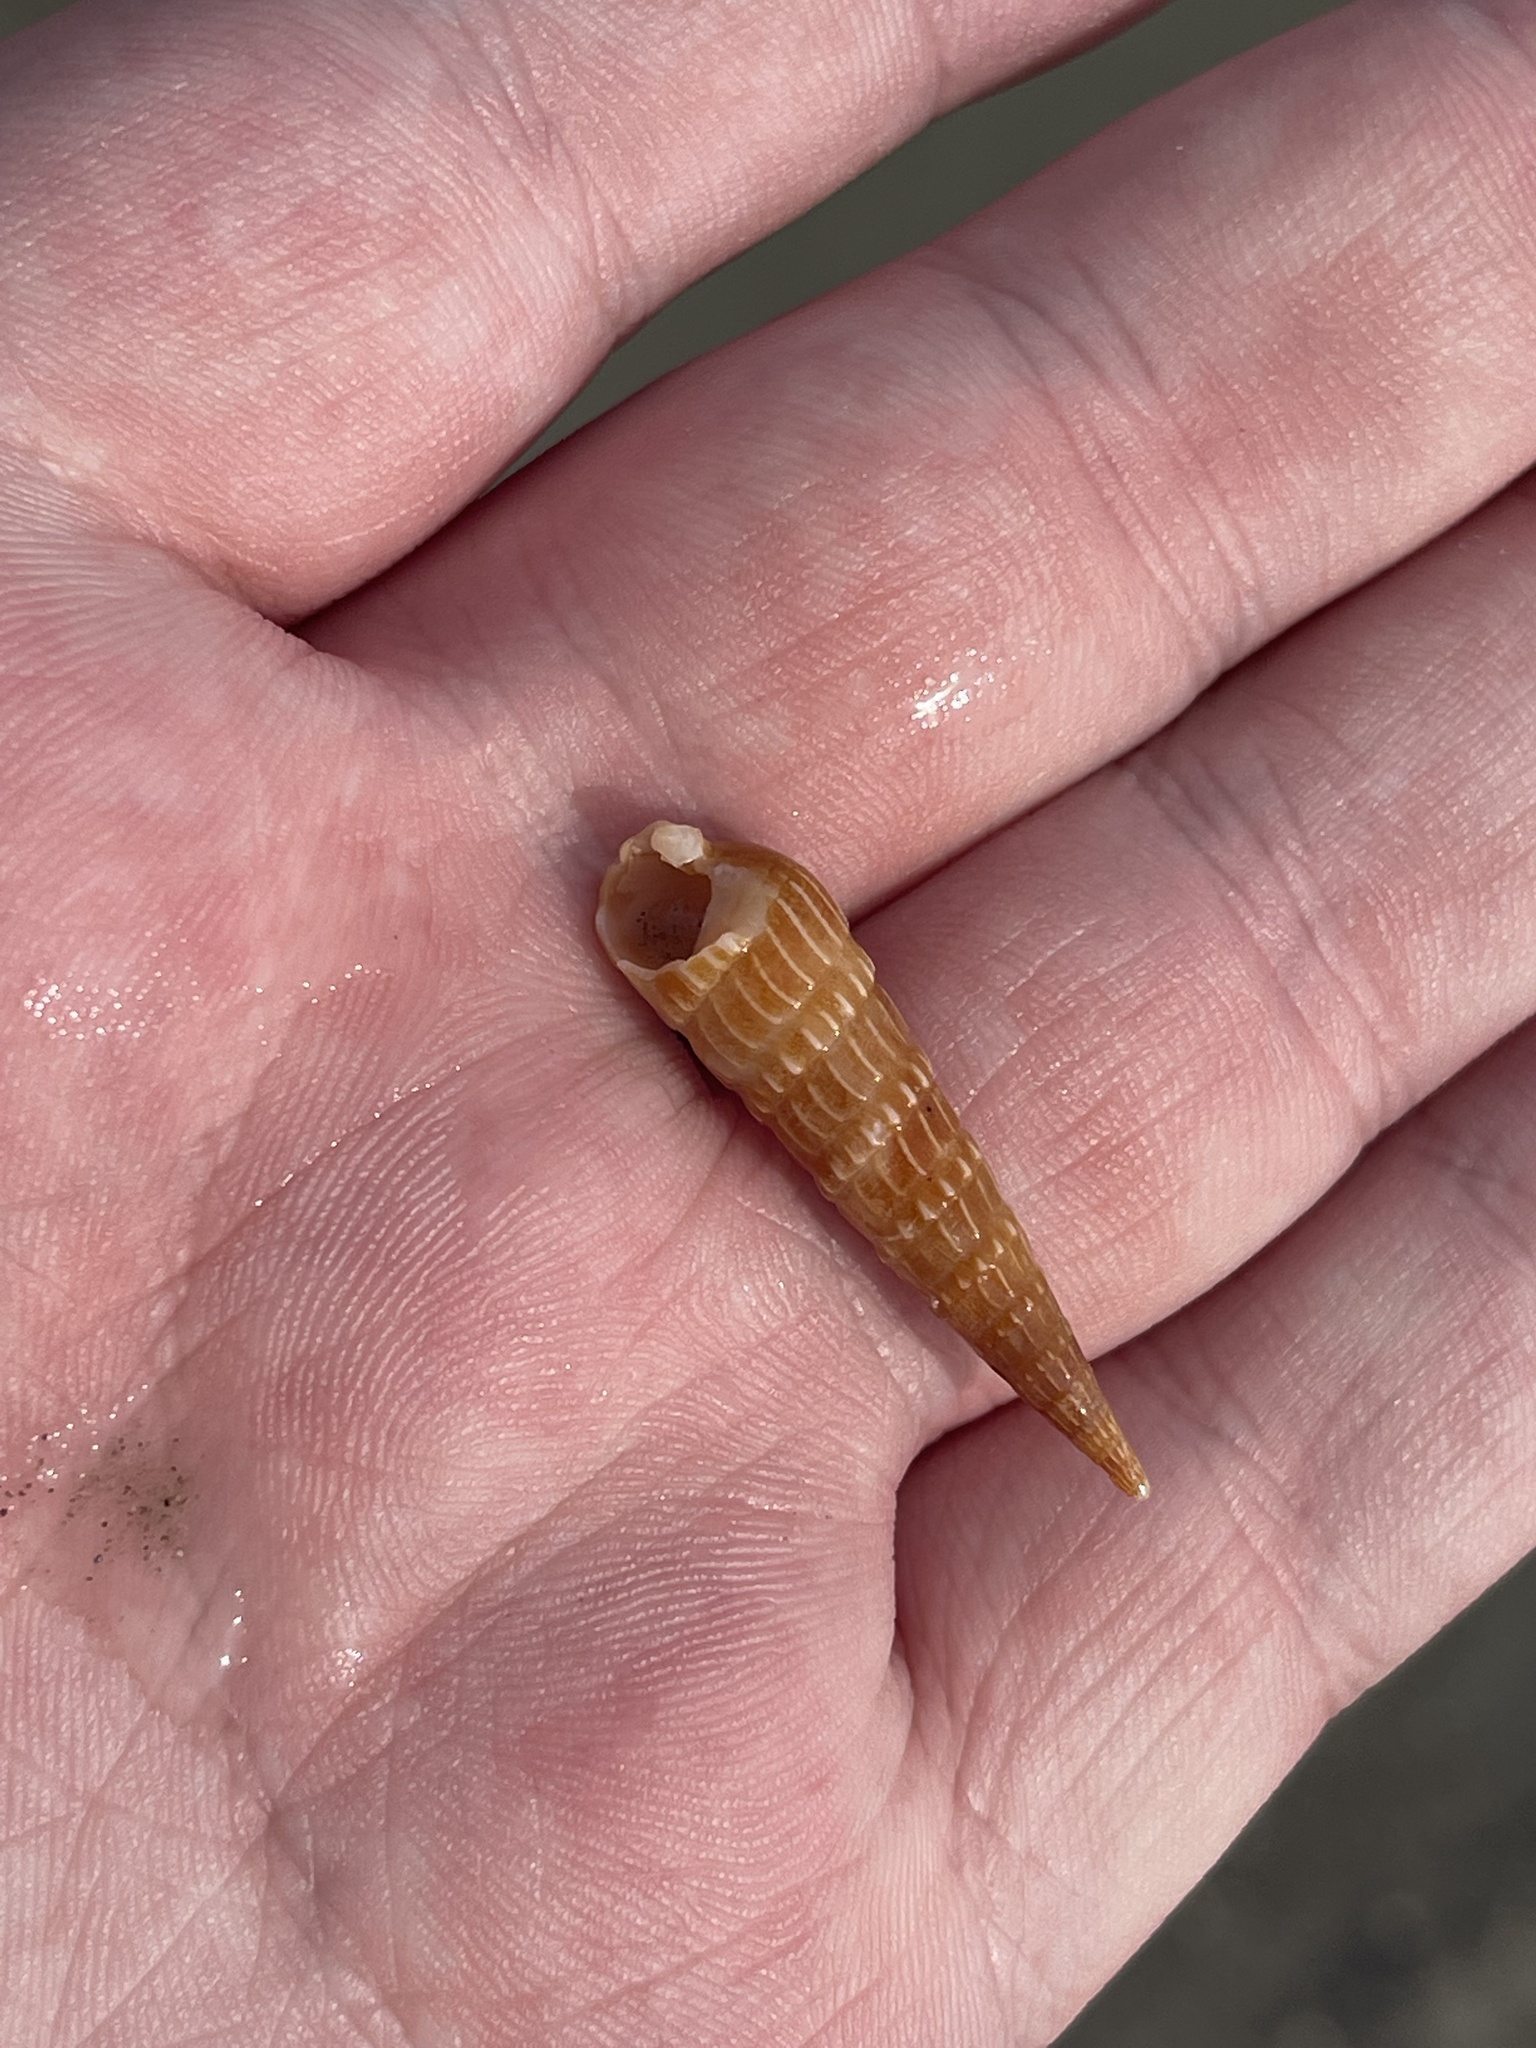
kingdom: Animalia
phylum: Mollusca
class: Gastropoda
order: Neogastropoda
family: Terebridae
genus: Neoterebra
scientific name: Neoterebra dislocata
